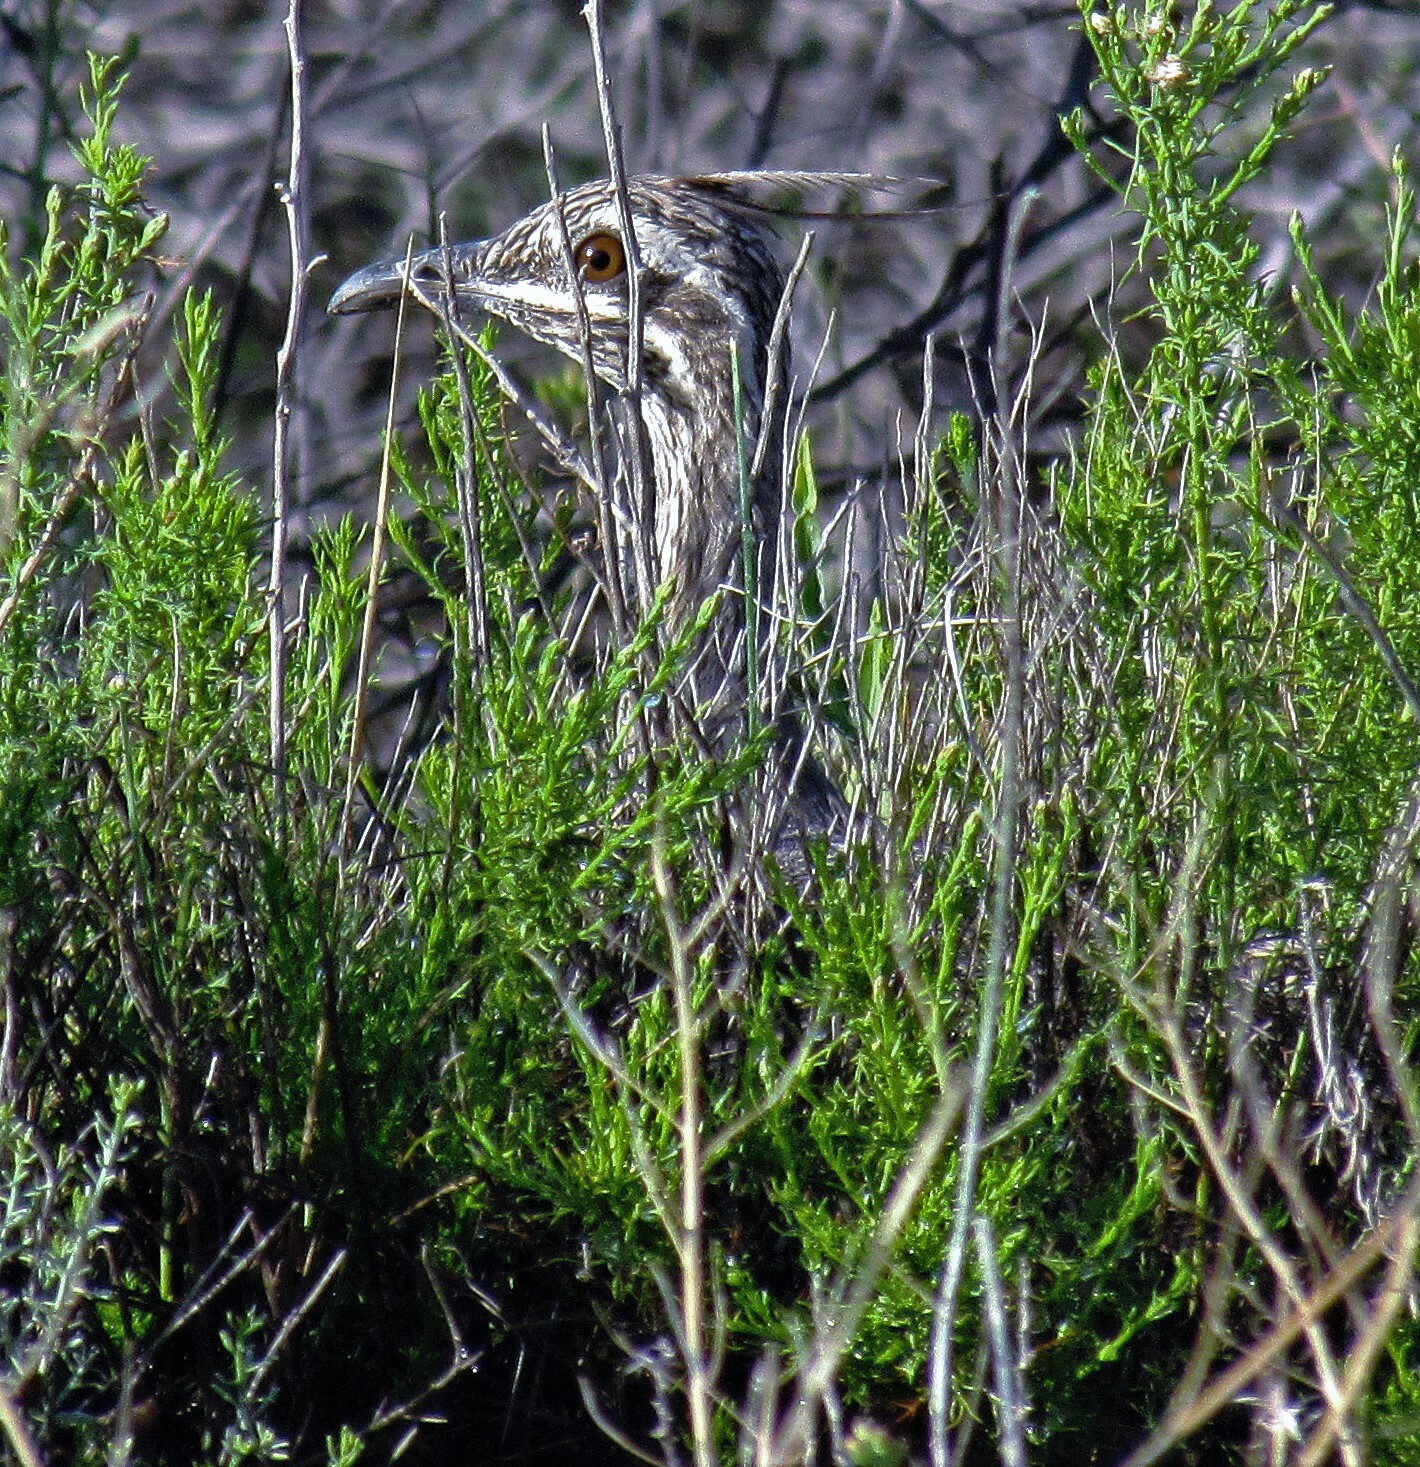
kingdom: Animalia
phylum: Chordata
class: Aves
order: Tinamiformes
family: Tinamidae
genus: Eudromia
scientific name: Eudromia elegans
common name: Elegant crested tinamou
